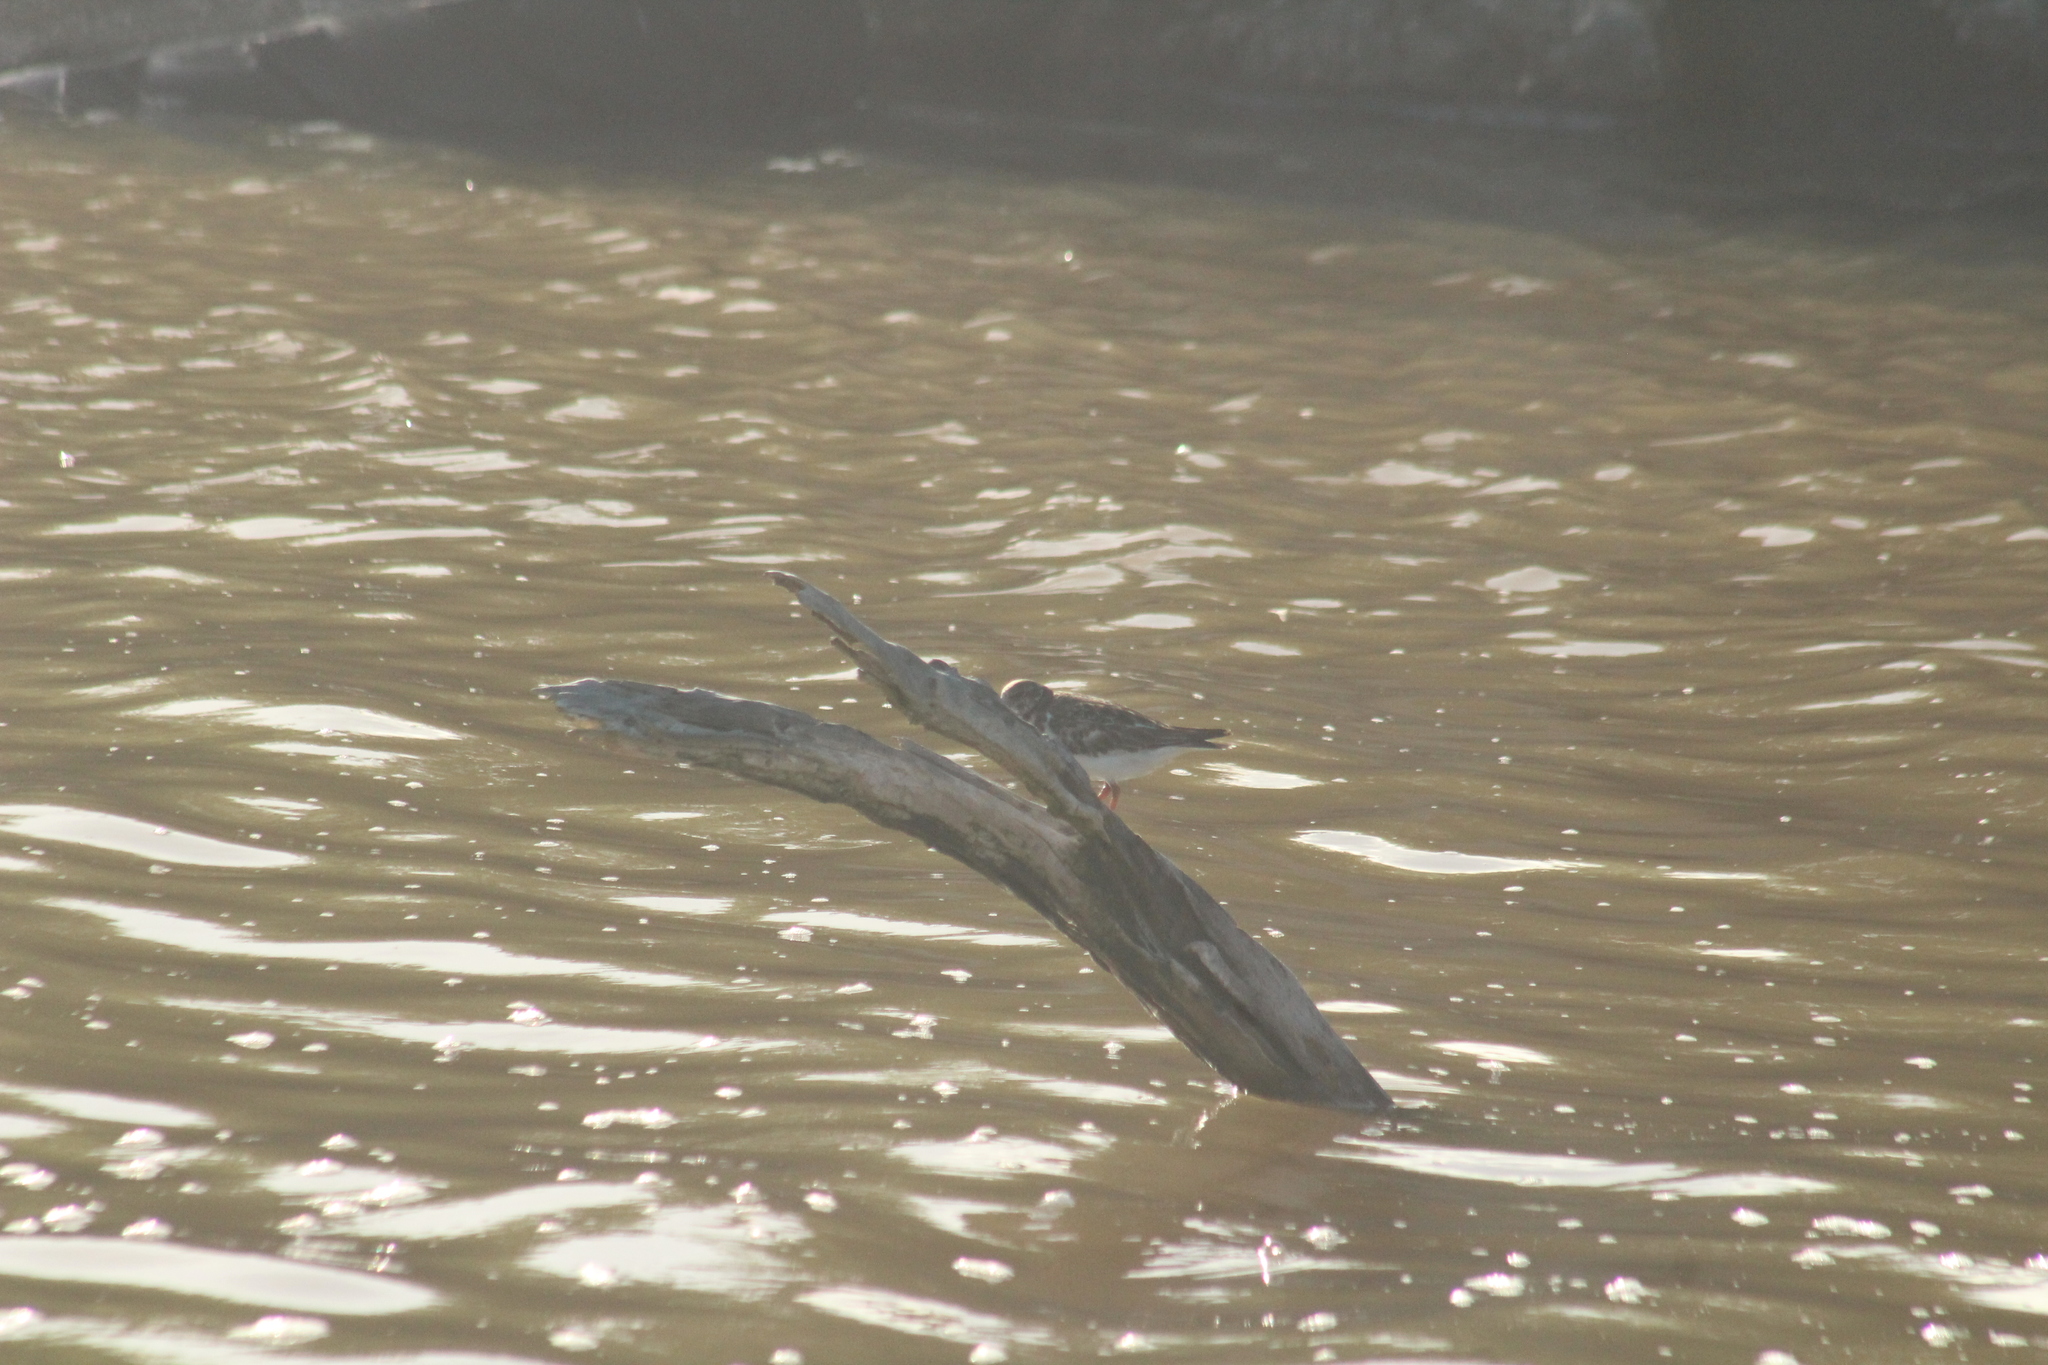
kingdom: Animalia
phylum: Chordata
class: Aves
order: Charadriiformes
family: Scolopacidae
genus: Arenaria
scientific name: Arenaria interpres
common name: Ruddy turnstone
